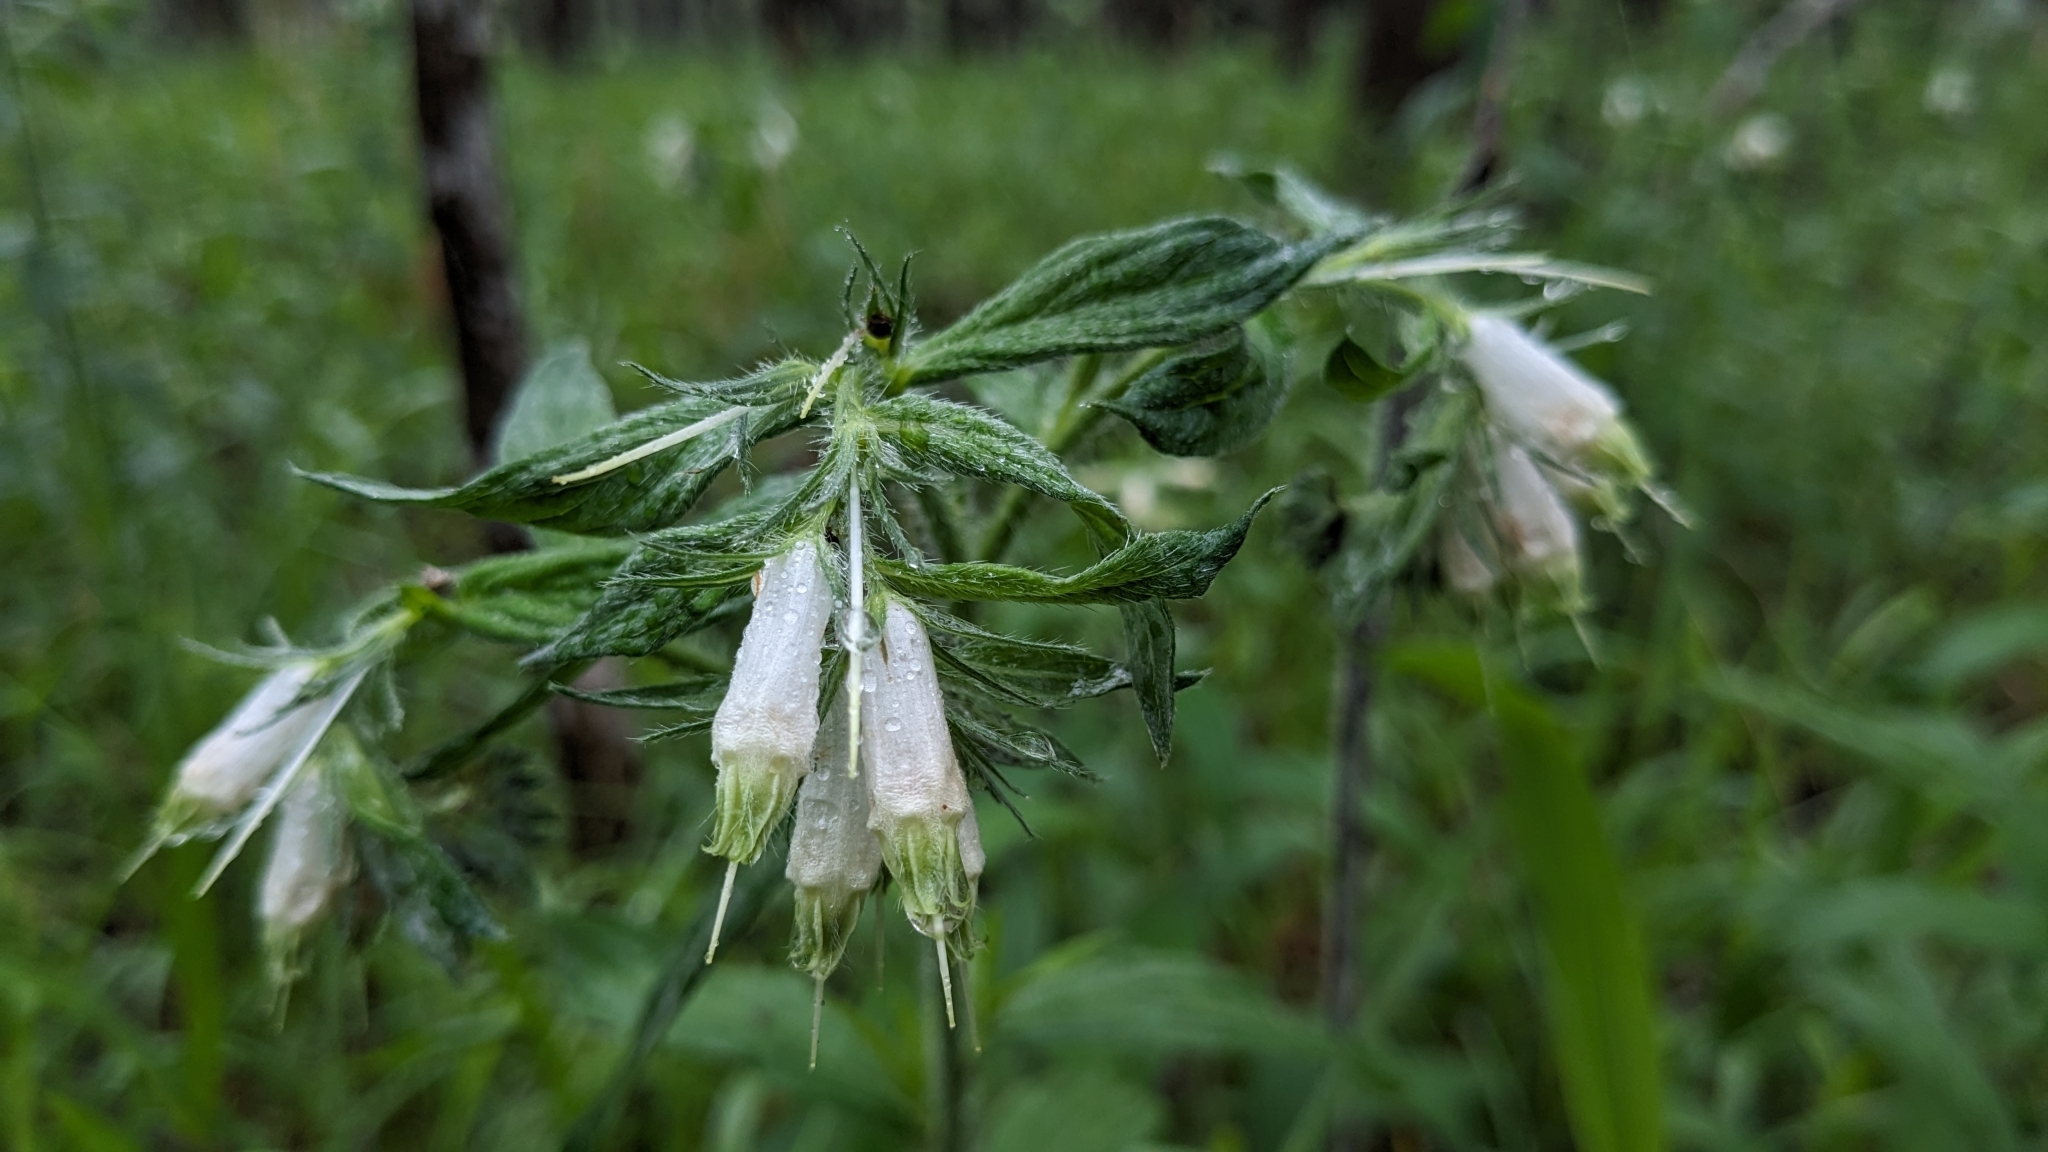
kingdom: Plantae
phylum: Tracheophyta
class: Magnoliopsida
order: Boraginales
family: Boraginaceae
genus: Lithospermum
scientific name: Lithospermum caroliniense
